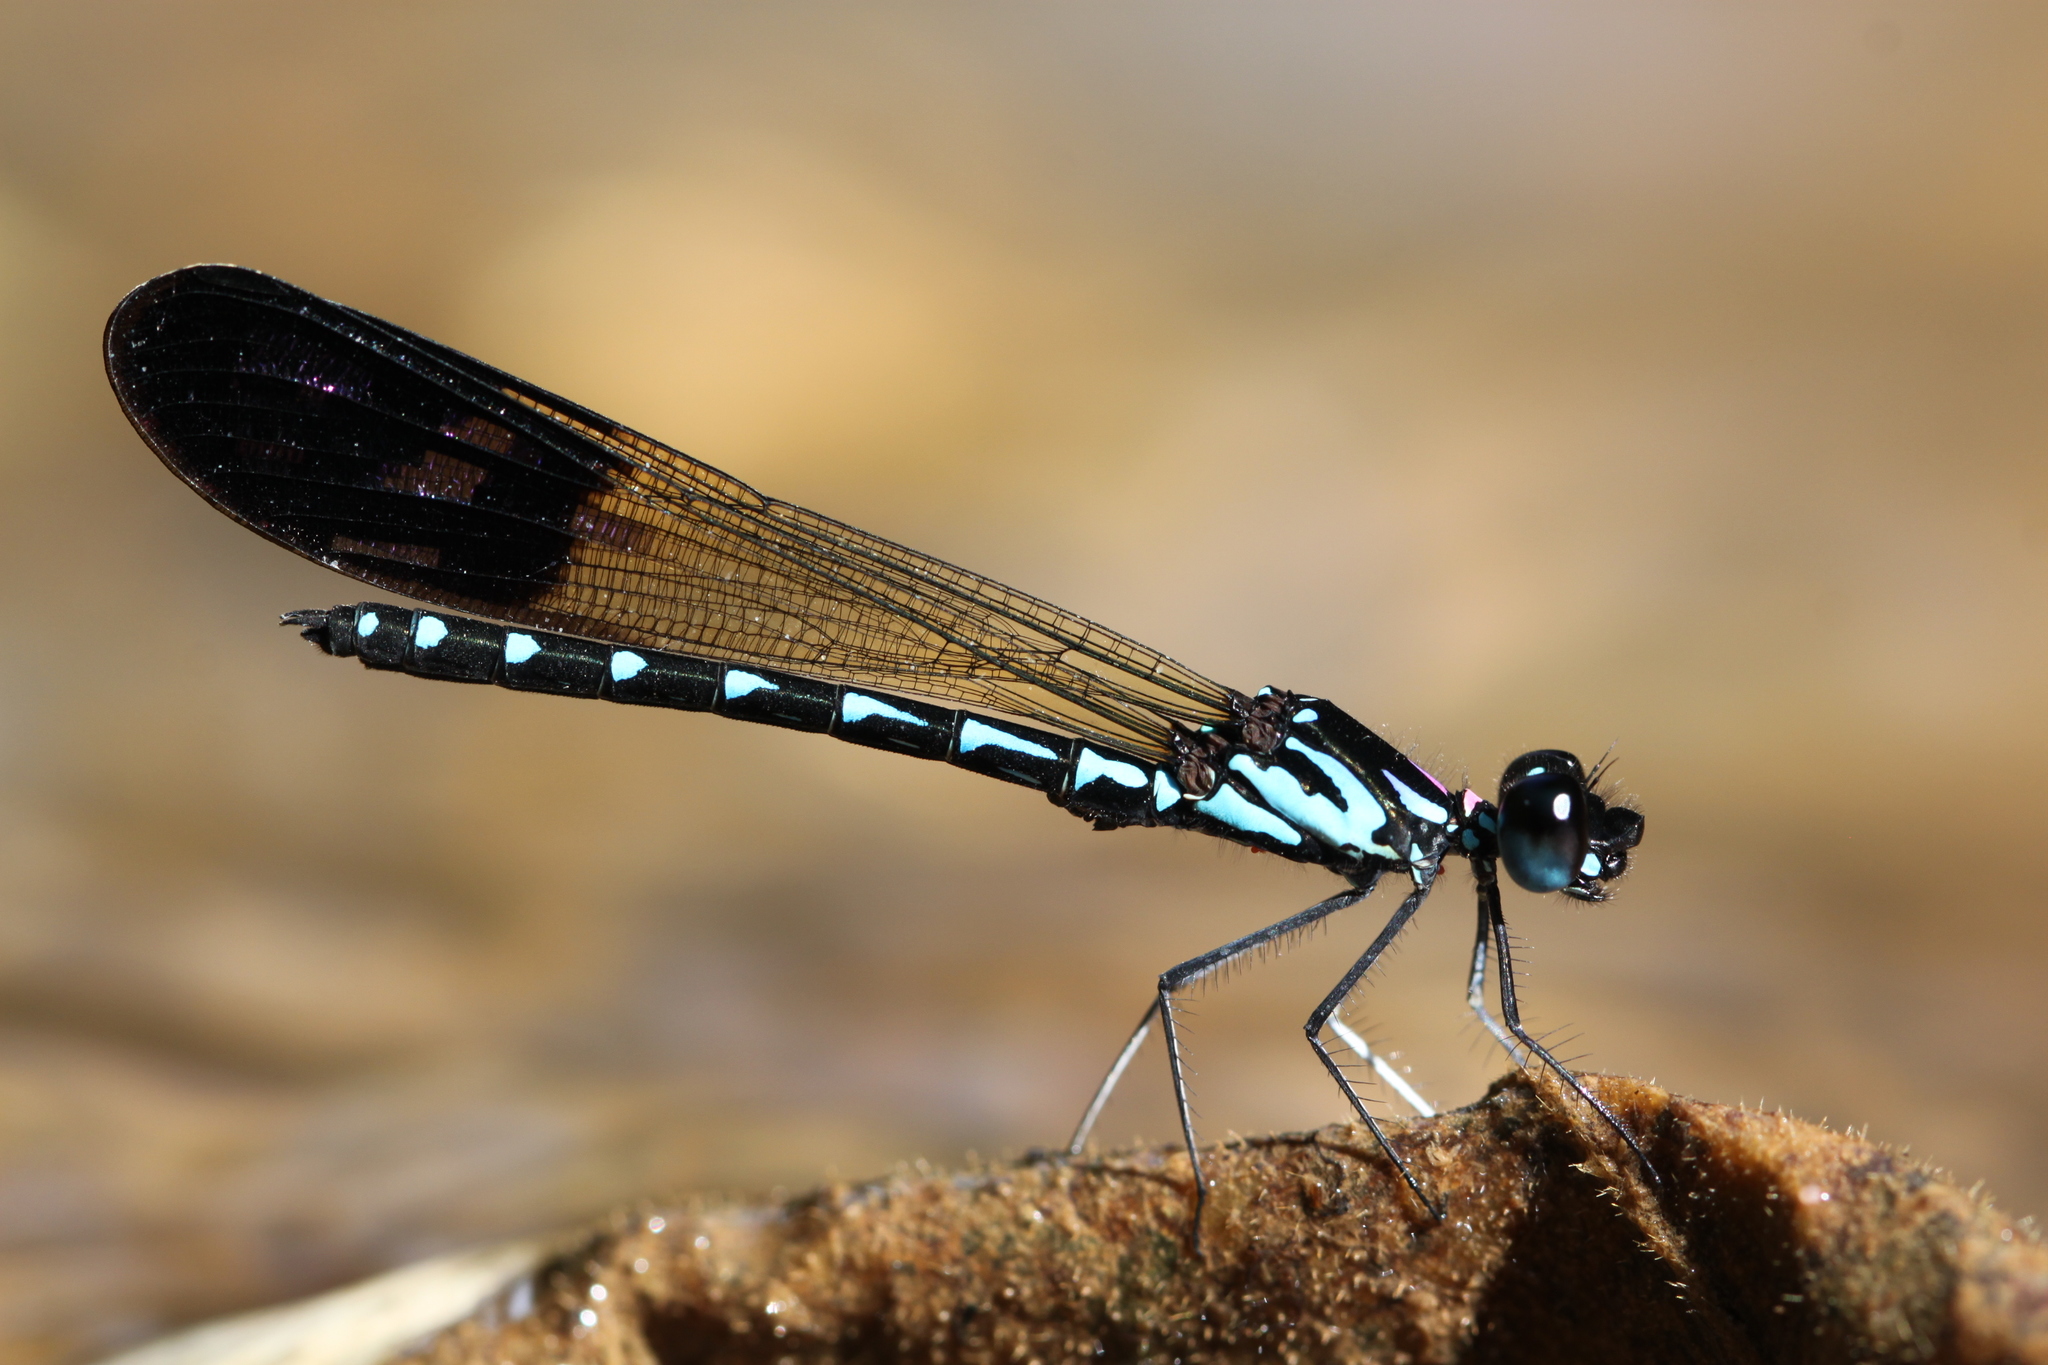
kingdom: Animalia
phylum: Arthropoda
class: Insecta
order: Odonata
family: Chlorocyphidae
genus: Heliocypha
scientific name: Heliocypha perforata
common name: Common blue jewel
